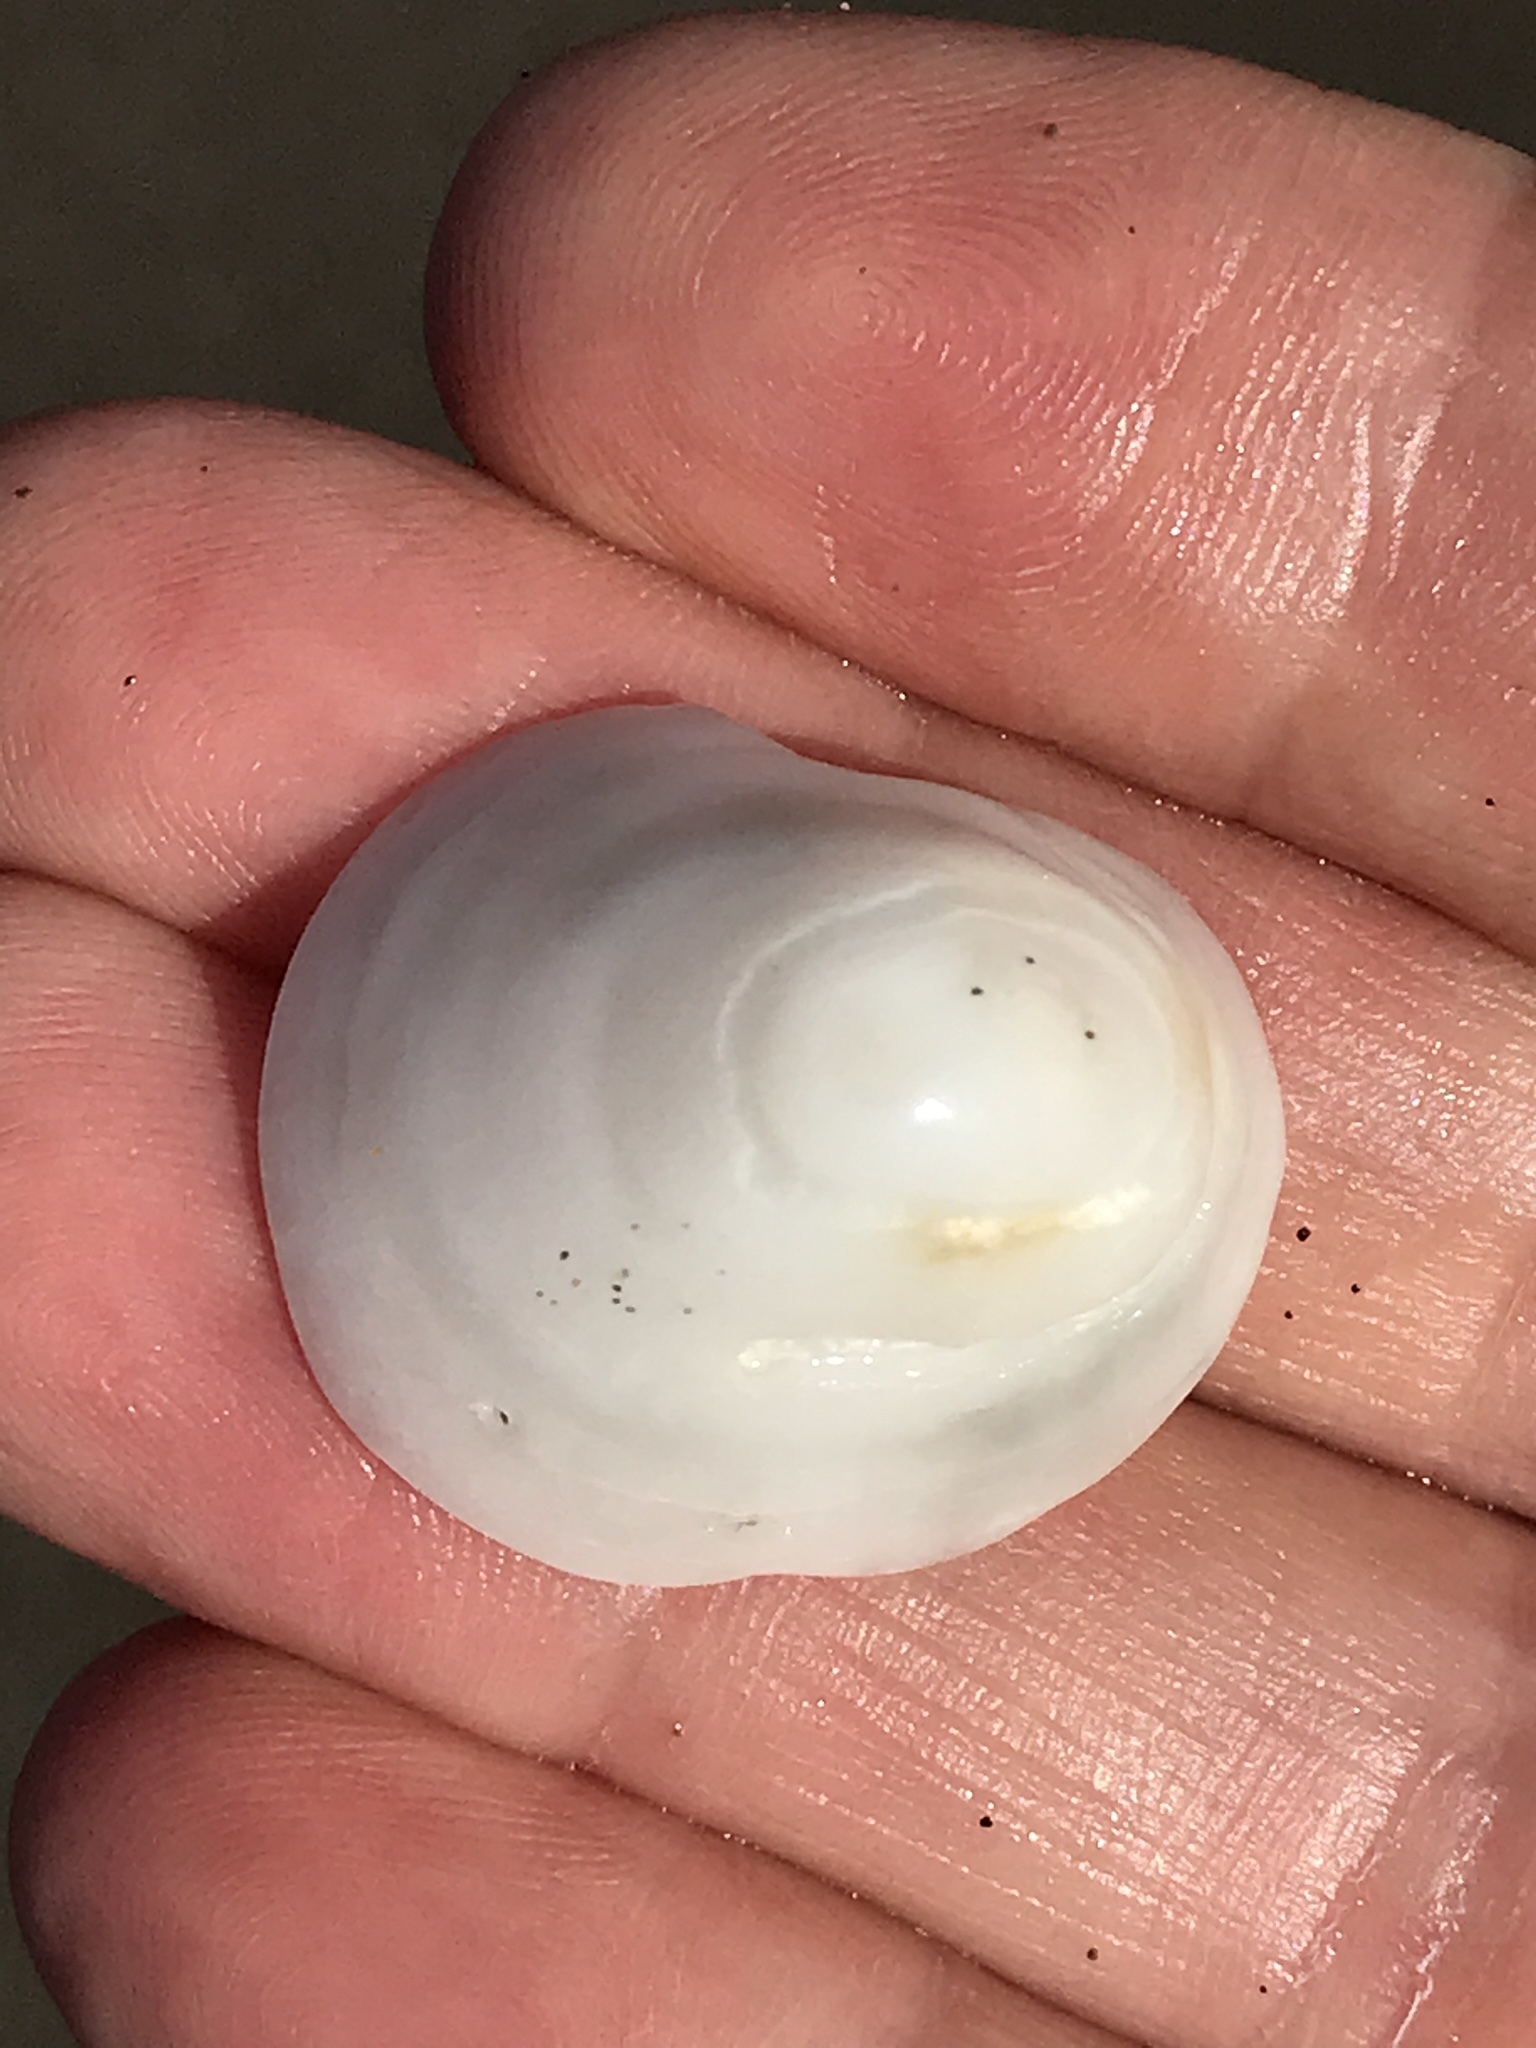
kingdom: Animalia
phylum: Mollusca
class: Gastropoda
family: Acmaeidae
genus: Acmaea
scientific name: Acmaea mitra
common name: Pacific white cap limpet
